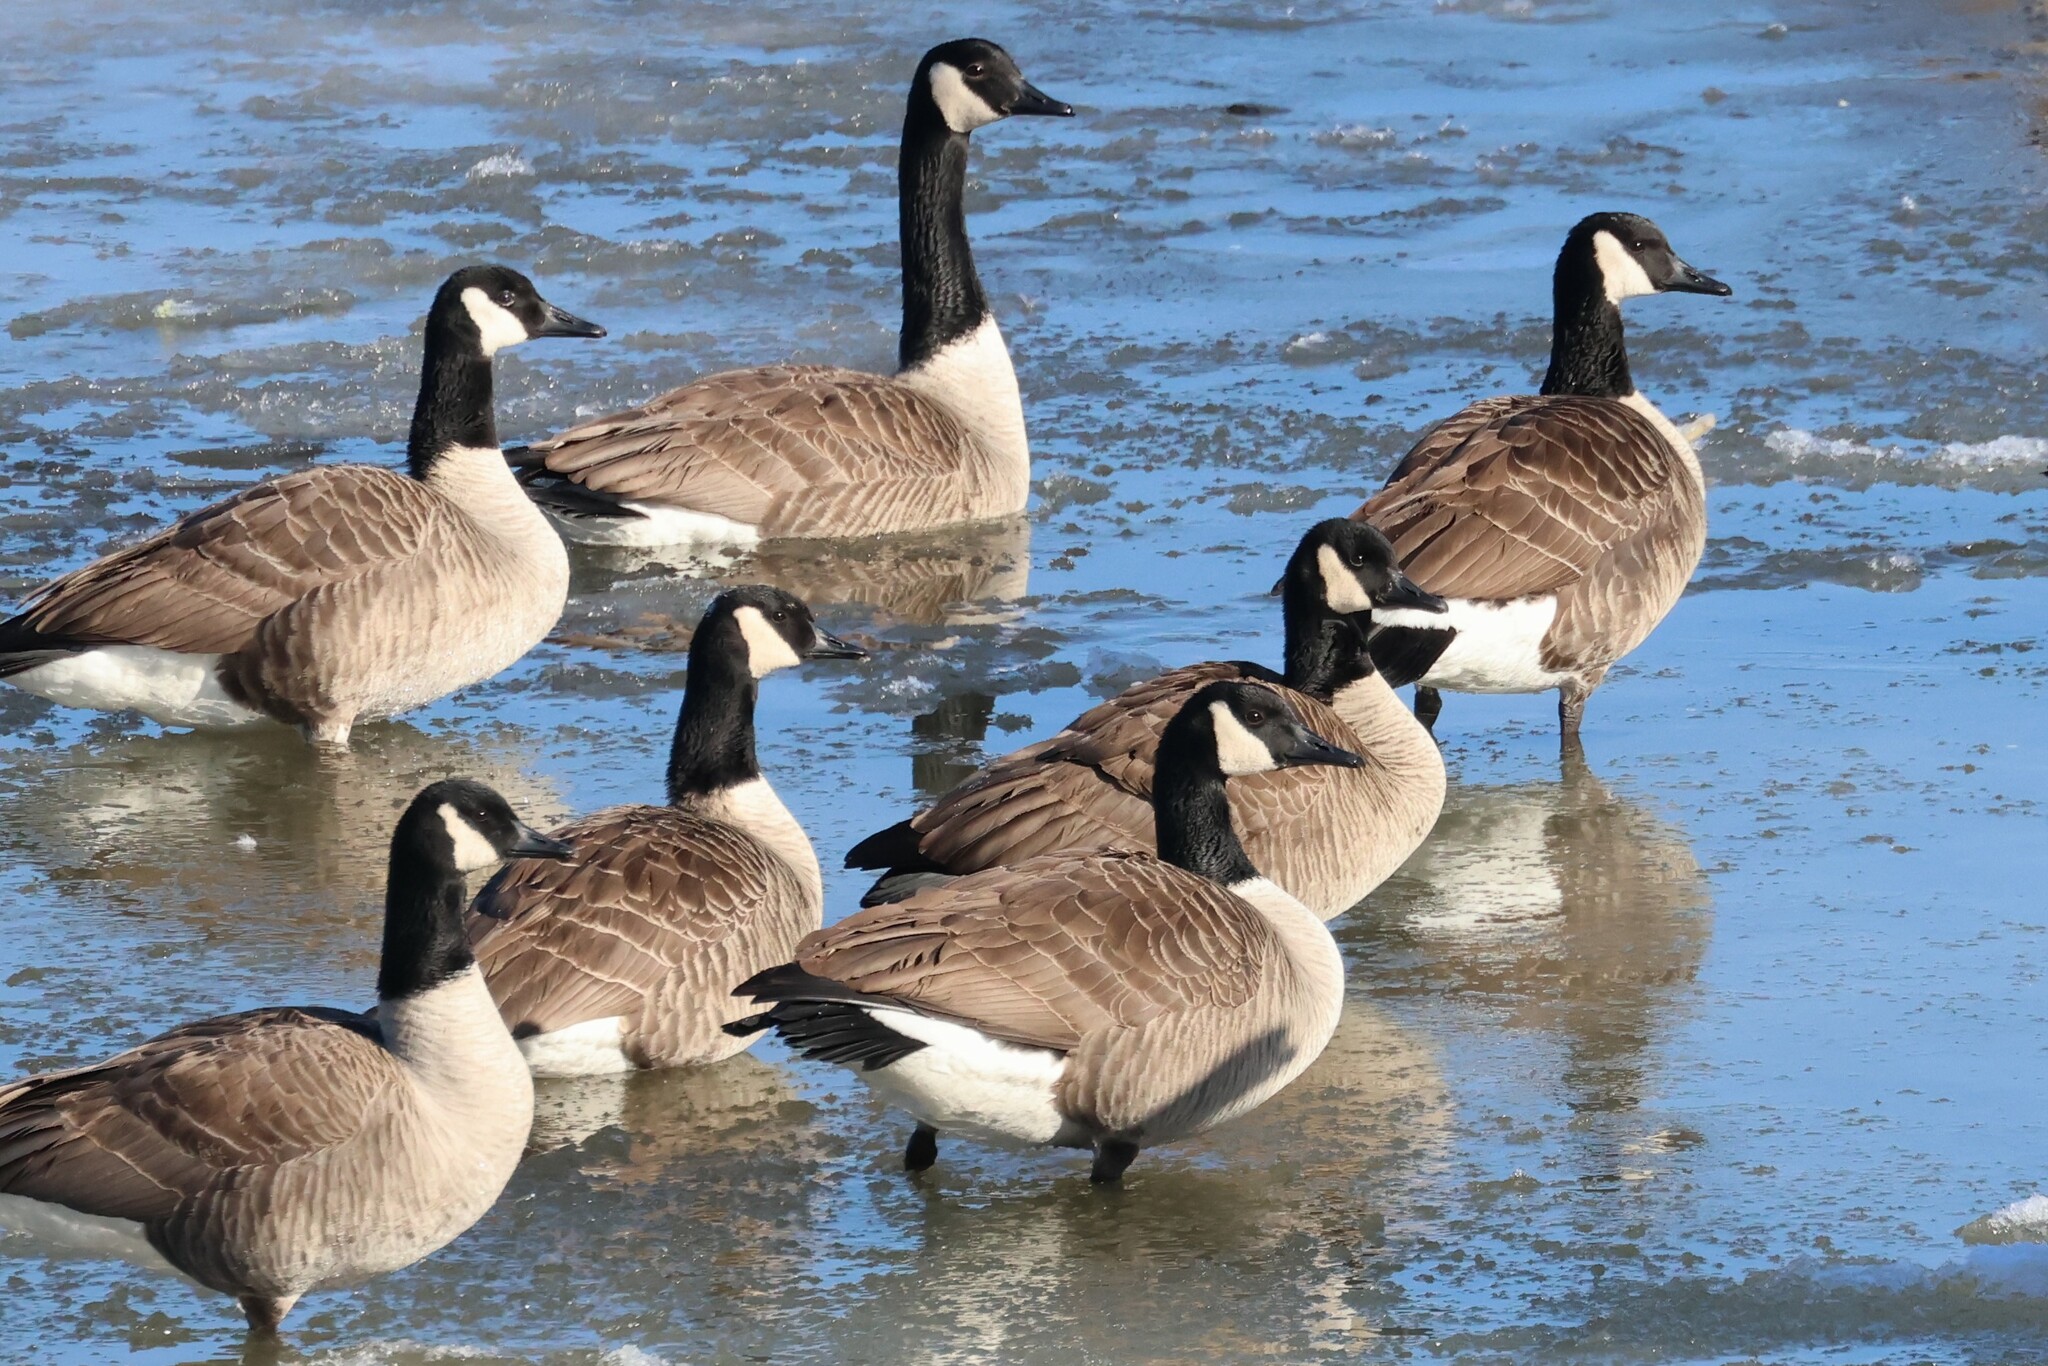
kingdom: Animalia
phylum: Chordata
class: Aves
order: Anseriformes
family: Anatidae
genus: Branta
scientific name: Branta canadensis
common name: Canada goose
